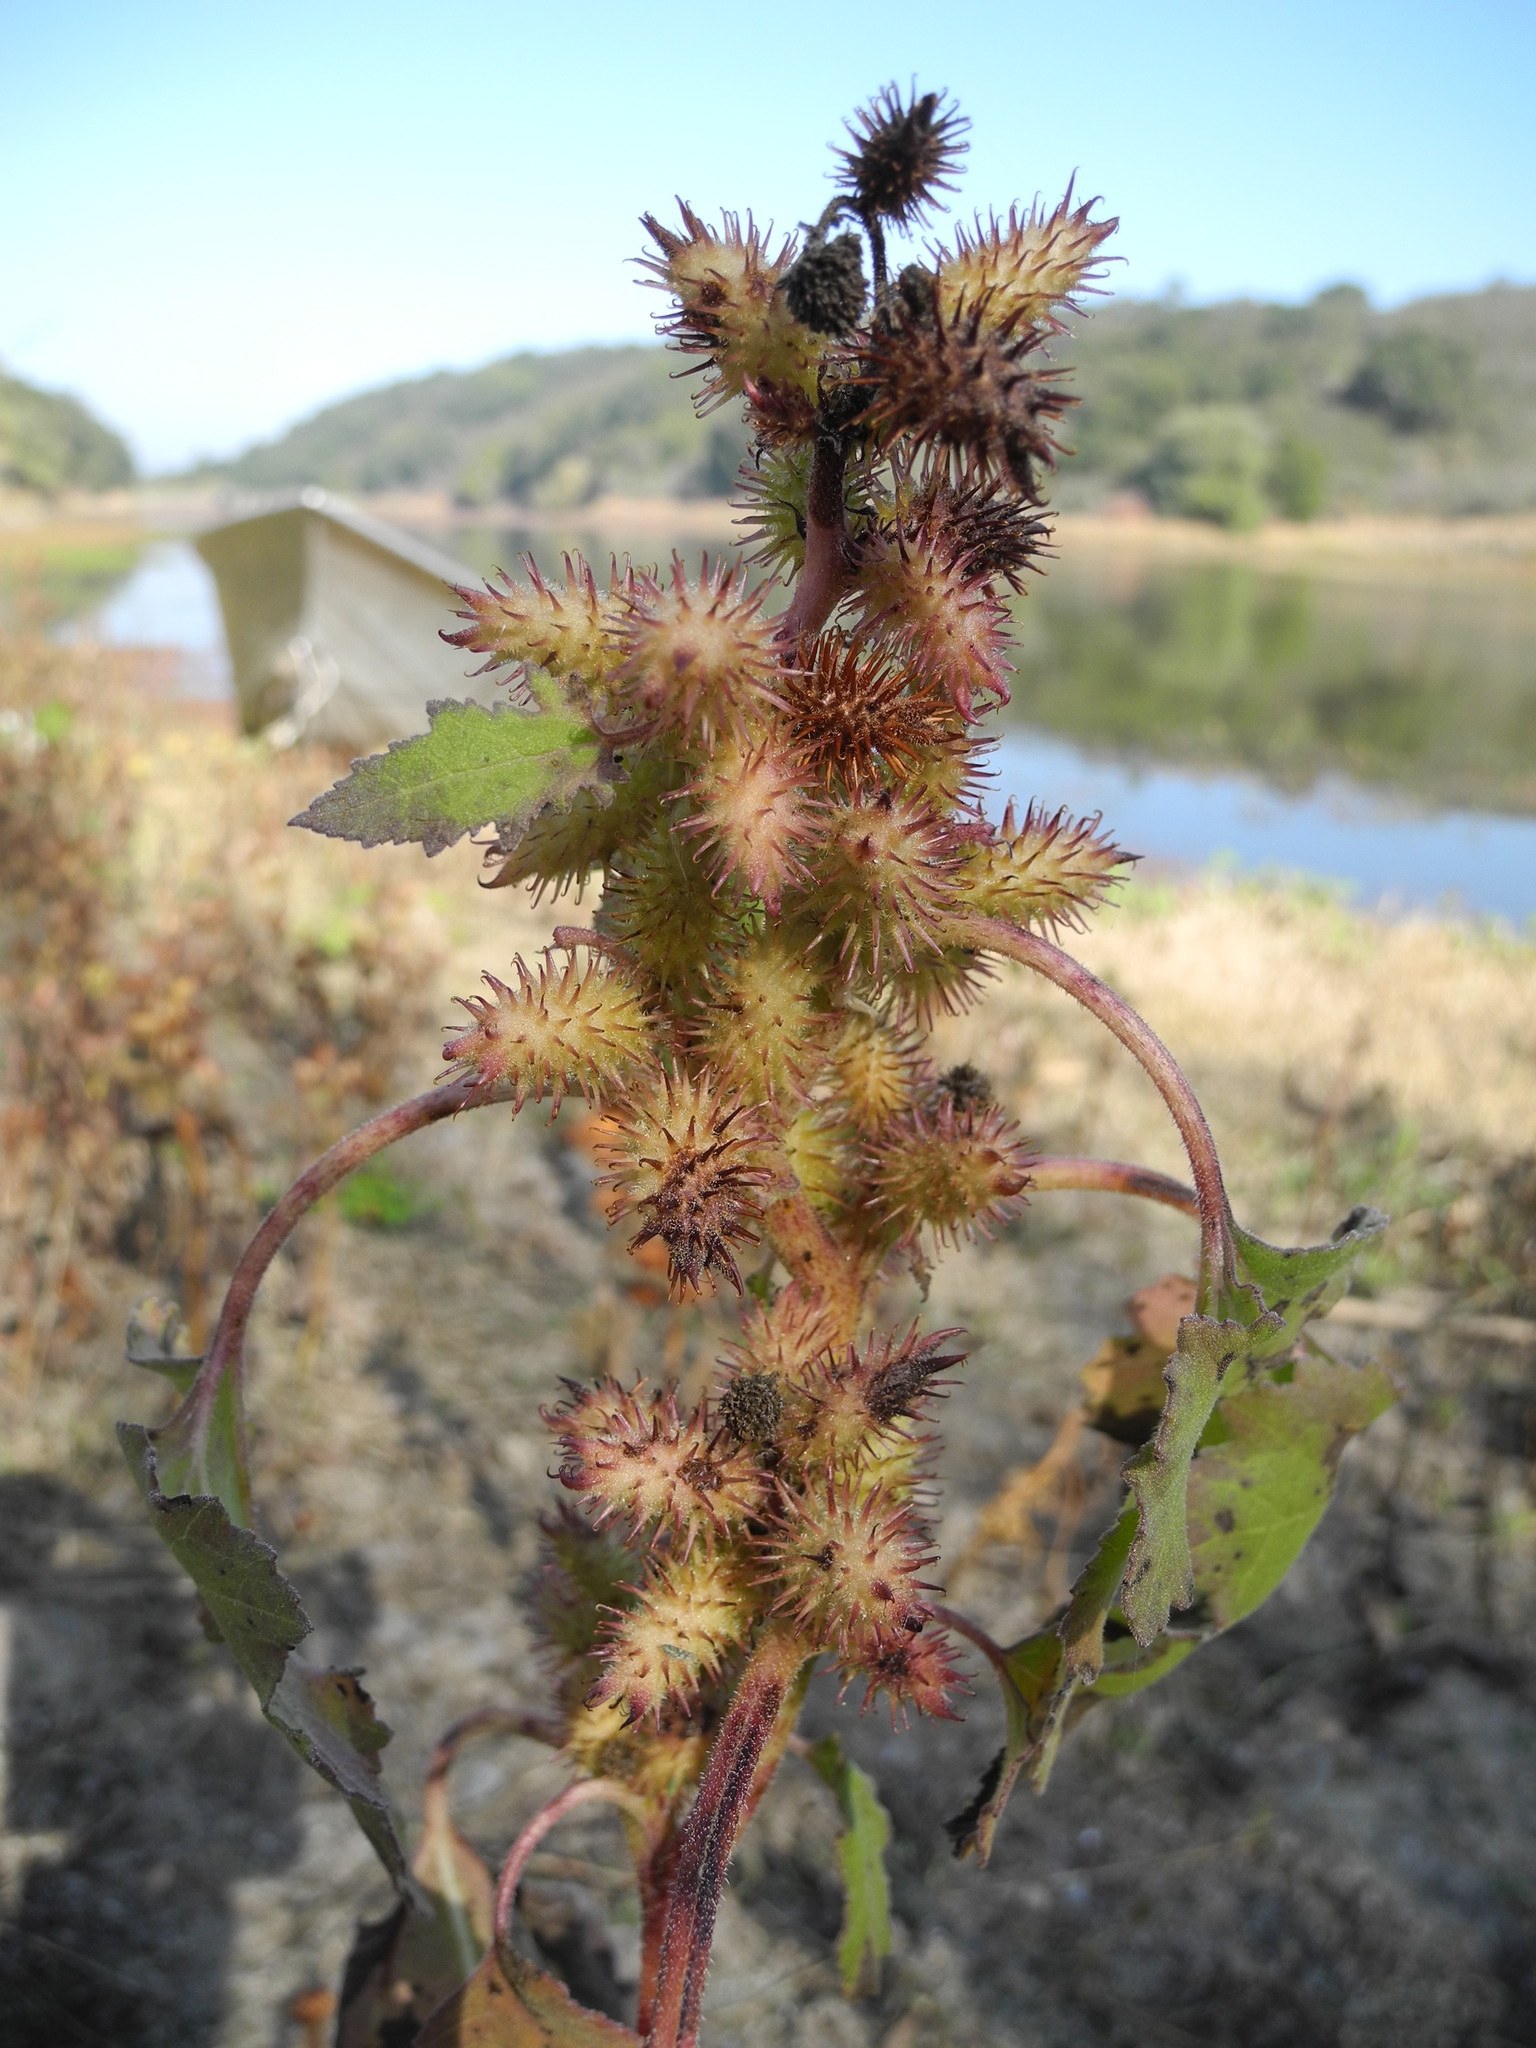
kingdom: Plantae
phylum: Tracheophyta
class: Magnoliopsida
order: Asterales
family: Asteraceae
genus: Xanthium
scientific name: Xanthium strumarium
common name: Rough cocklebur
